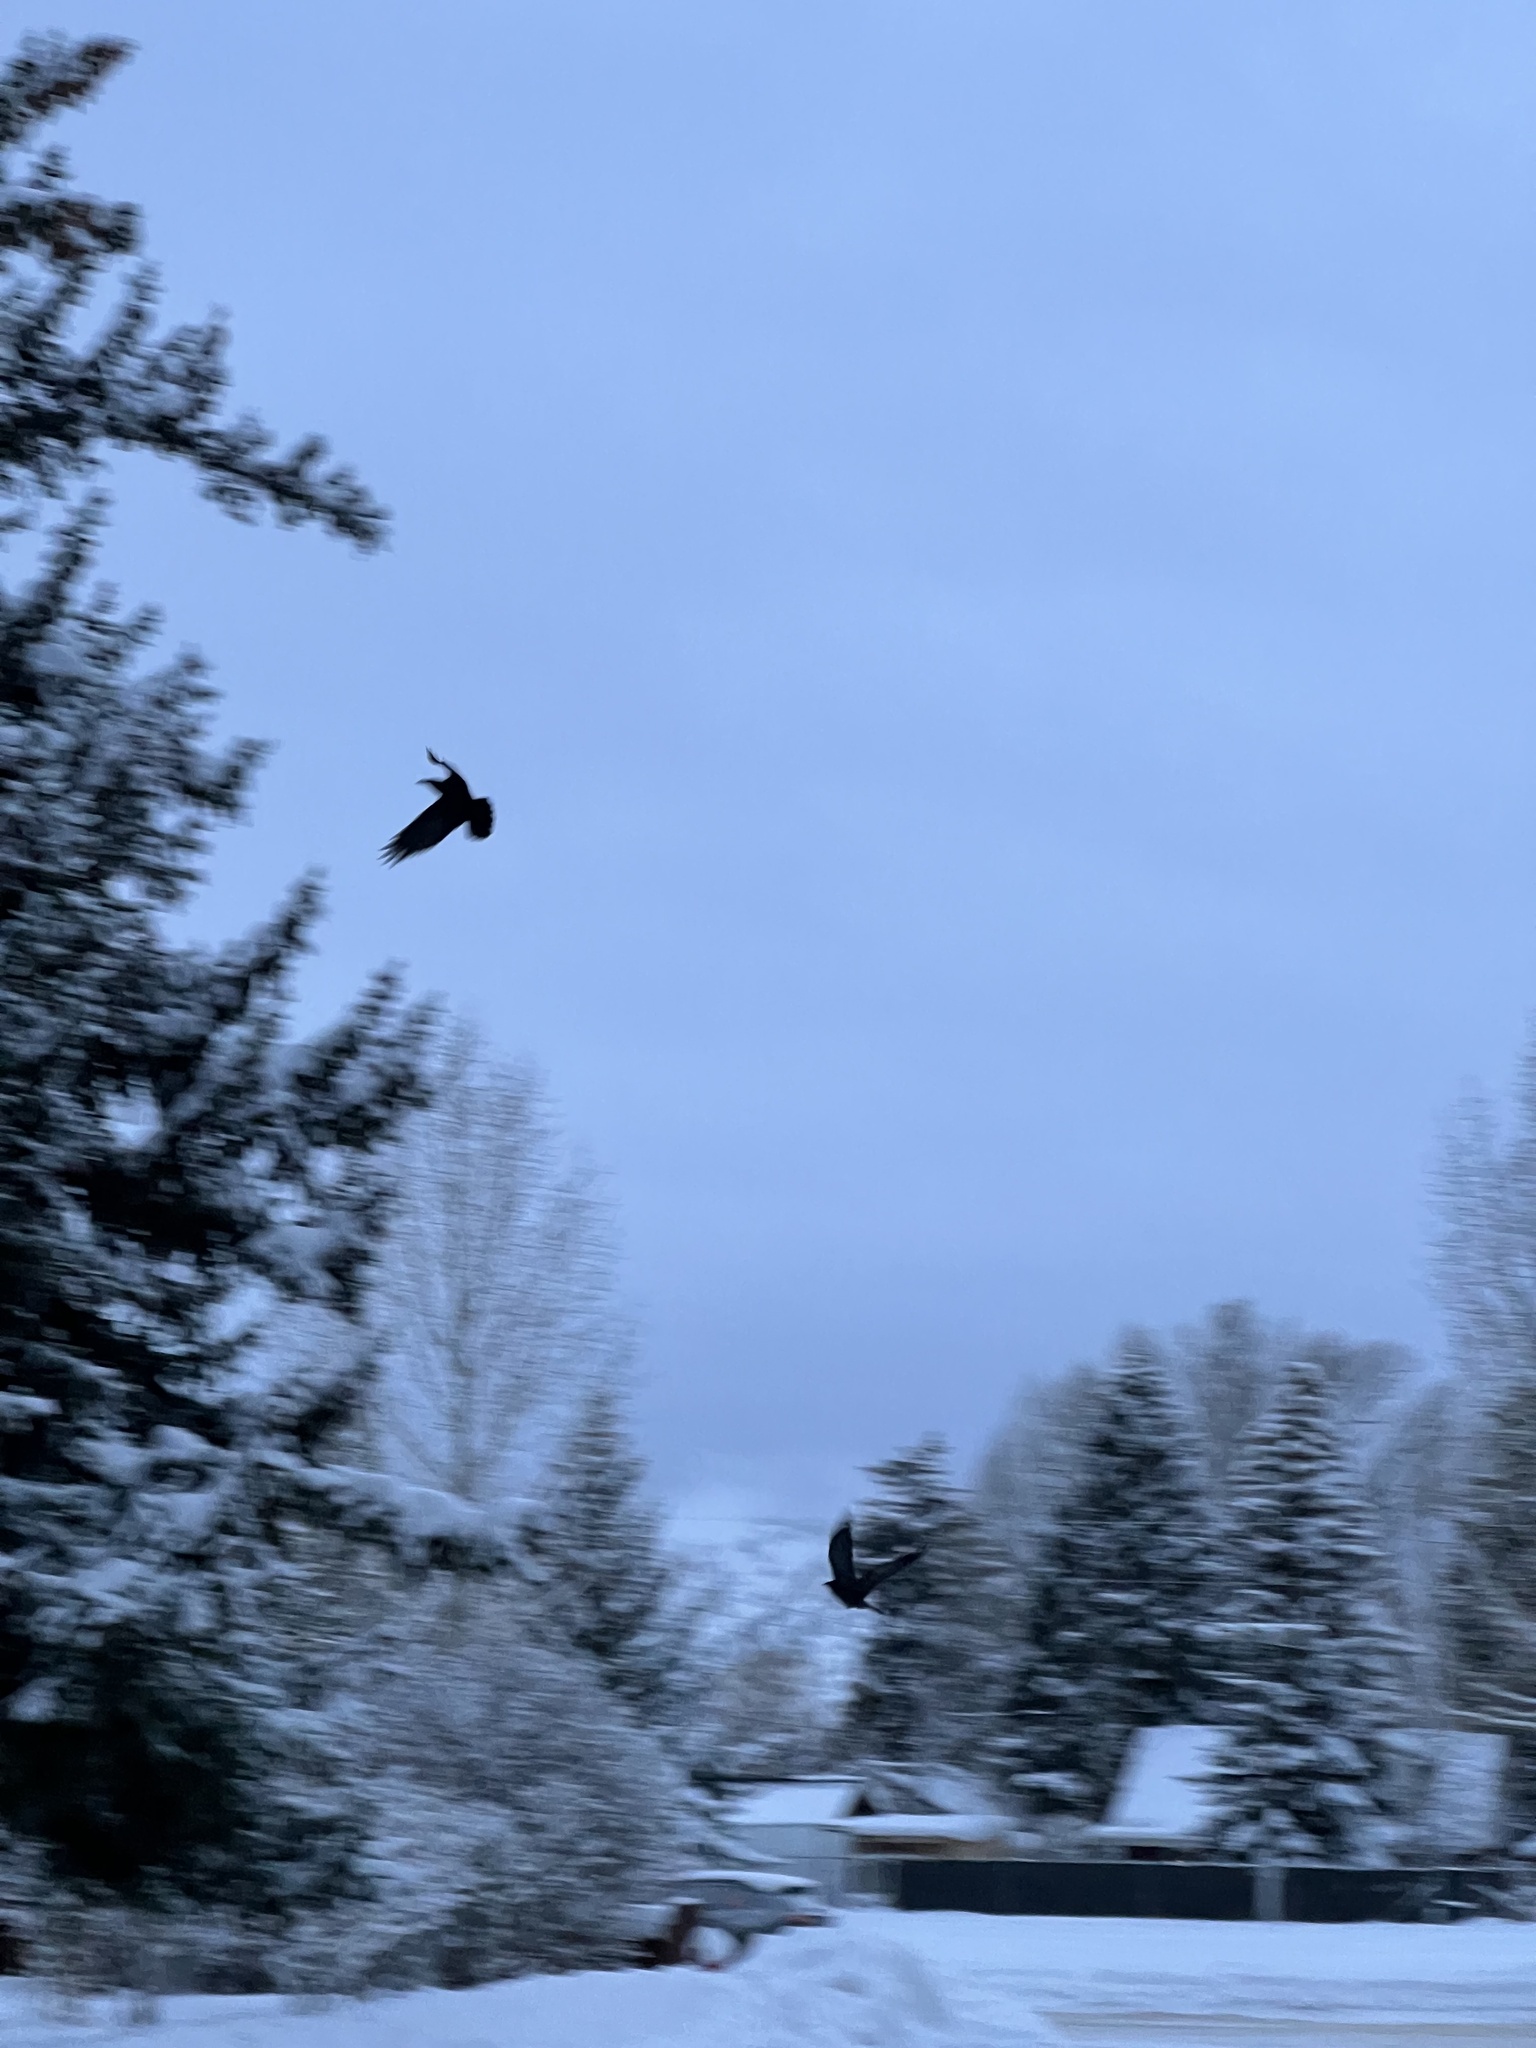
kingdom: Animalia
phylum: Chordata
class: Aves
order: Passeriformes
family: Corvidae
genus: Corvus
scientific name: Corvus corax
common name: Common raven
